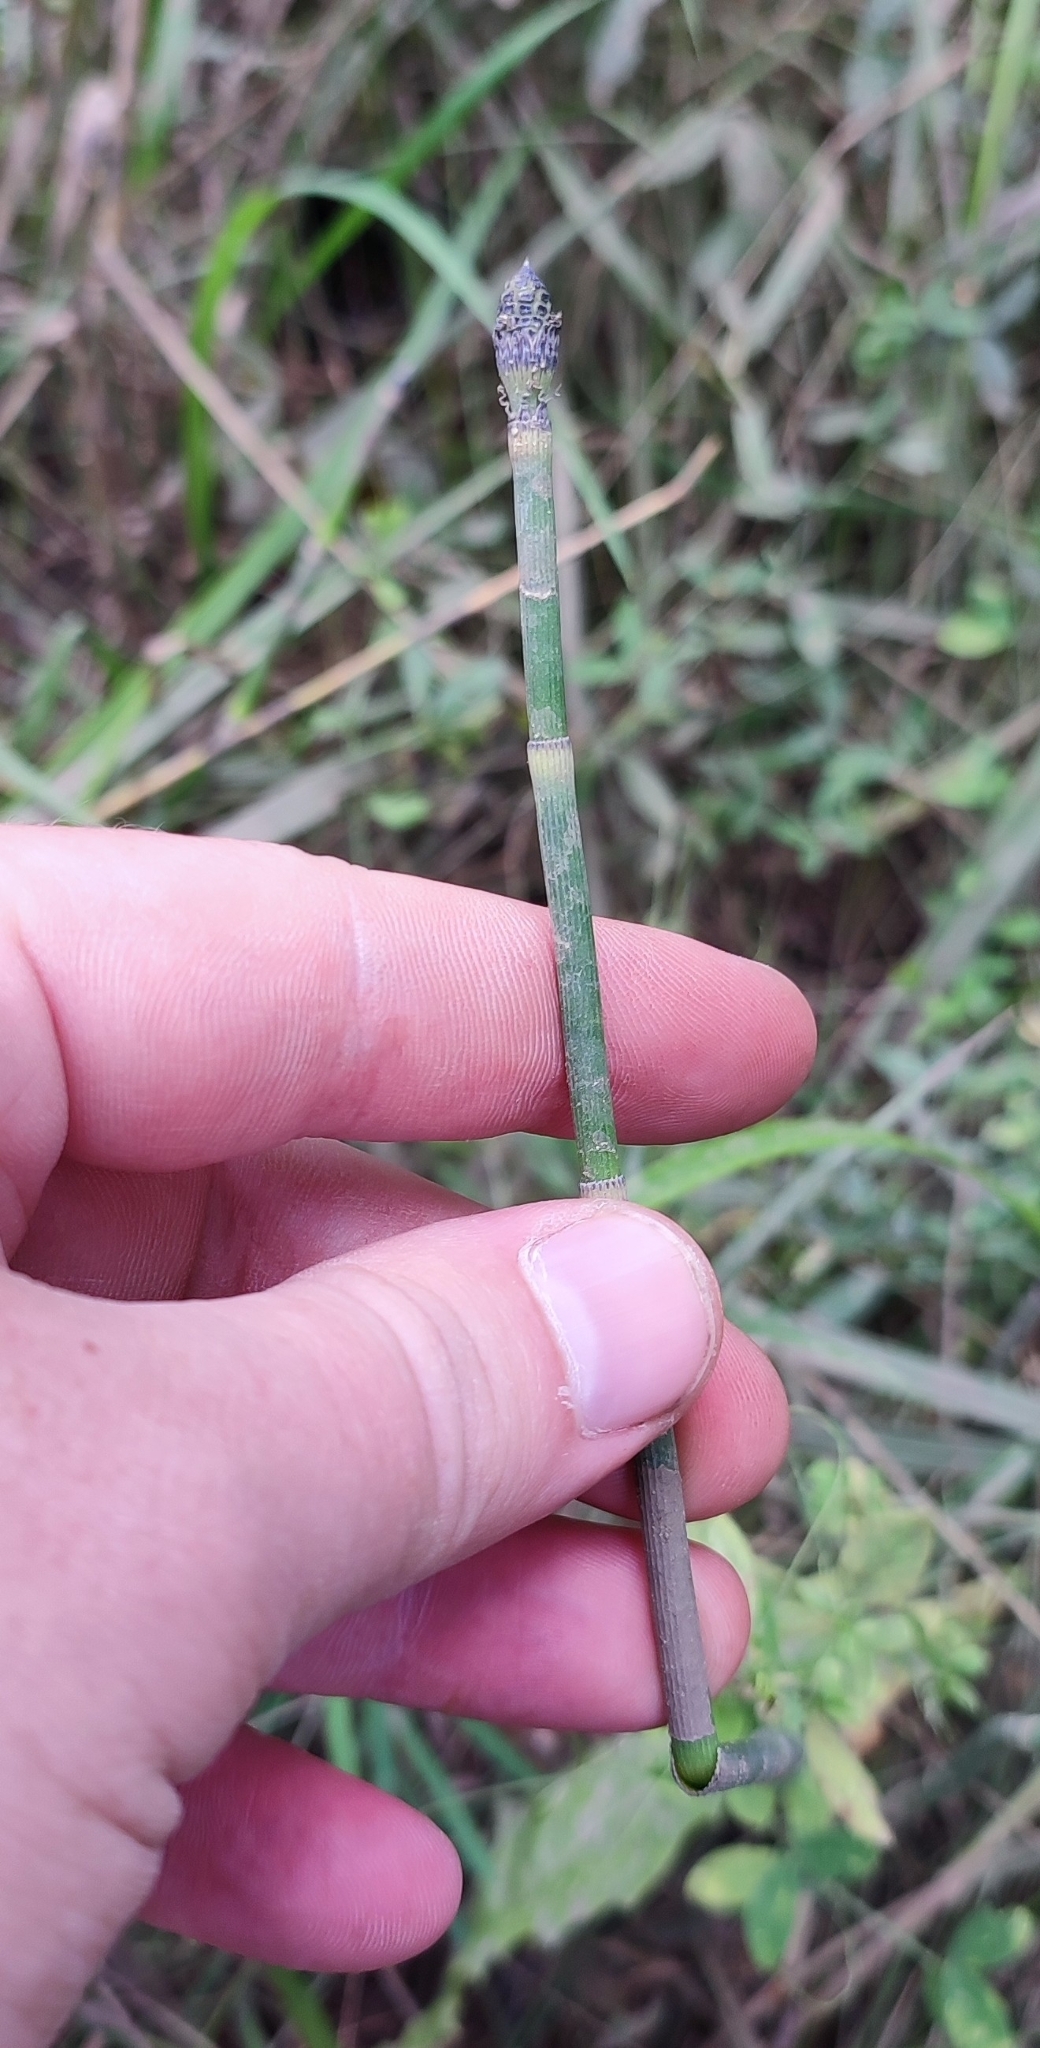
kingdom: Plantae
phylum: Tracheophyta
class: Polypodiopsida
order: Equisetales
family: Equisetaceae
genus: Equisetum
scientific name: Equisetum hyemale
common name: Rough horsetail
